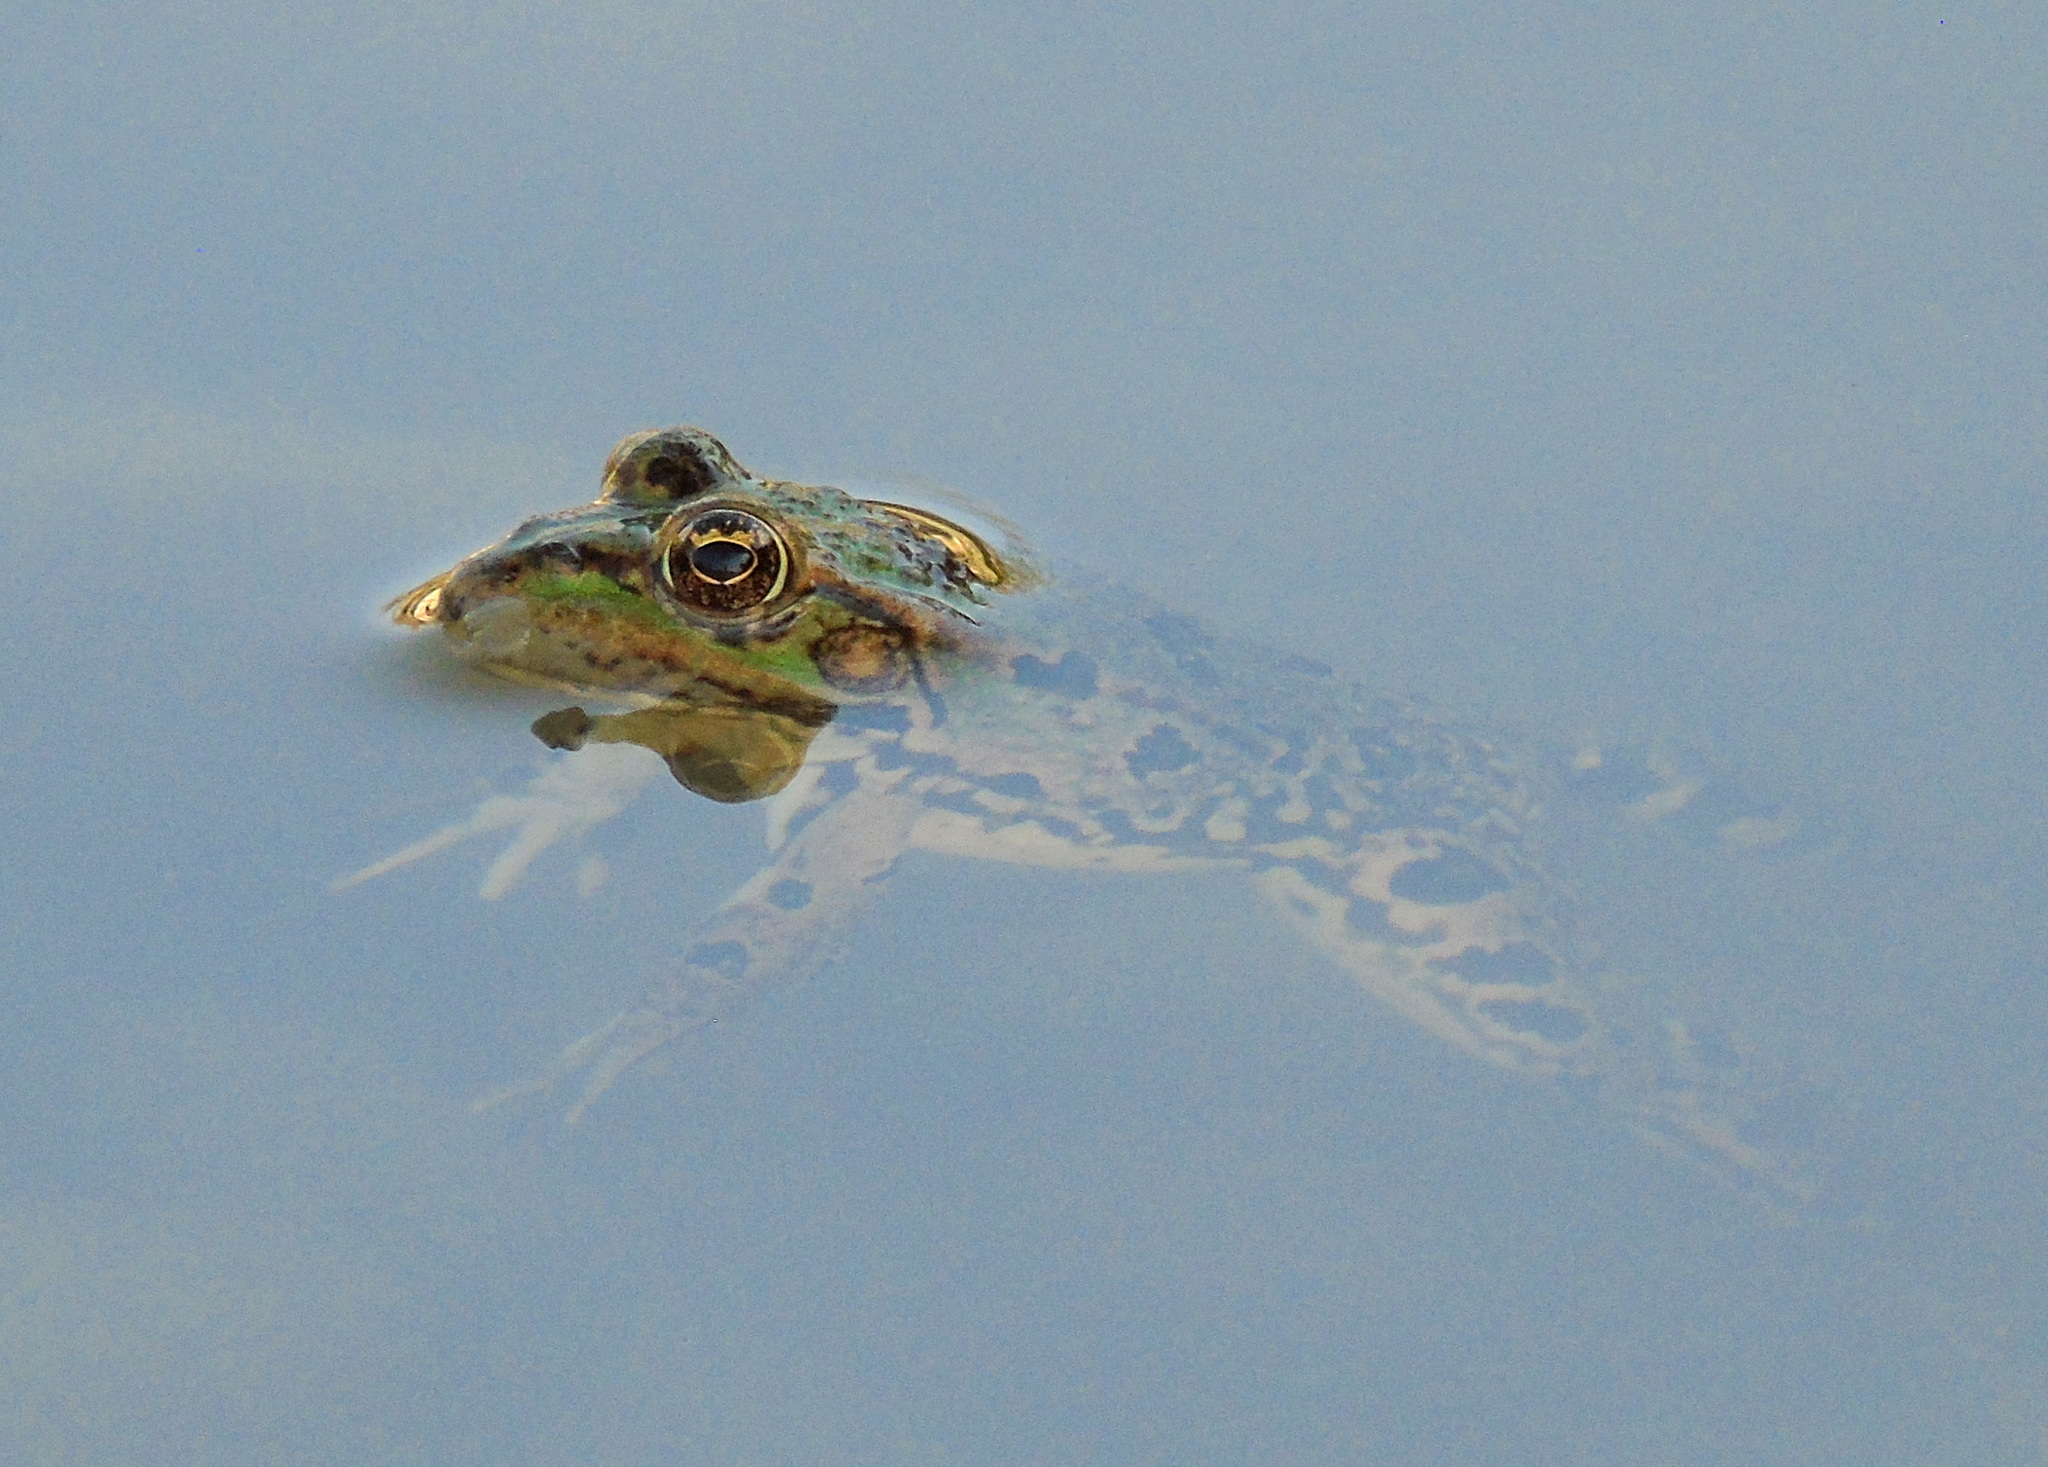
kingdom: Animalia
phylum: Chordata
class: Amphibia
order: Anura
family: Ranidae
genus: Pelophylax
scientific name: Pelophylax ridibundus
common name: Marsh frog
